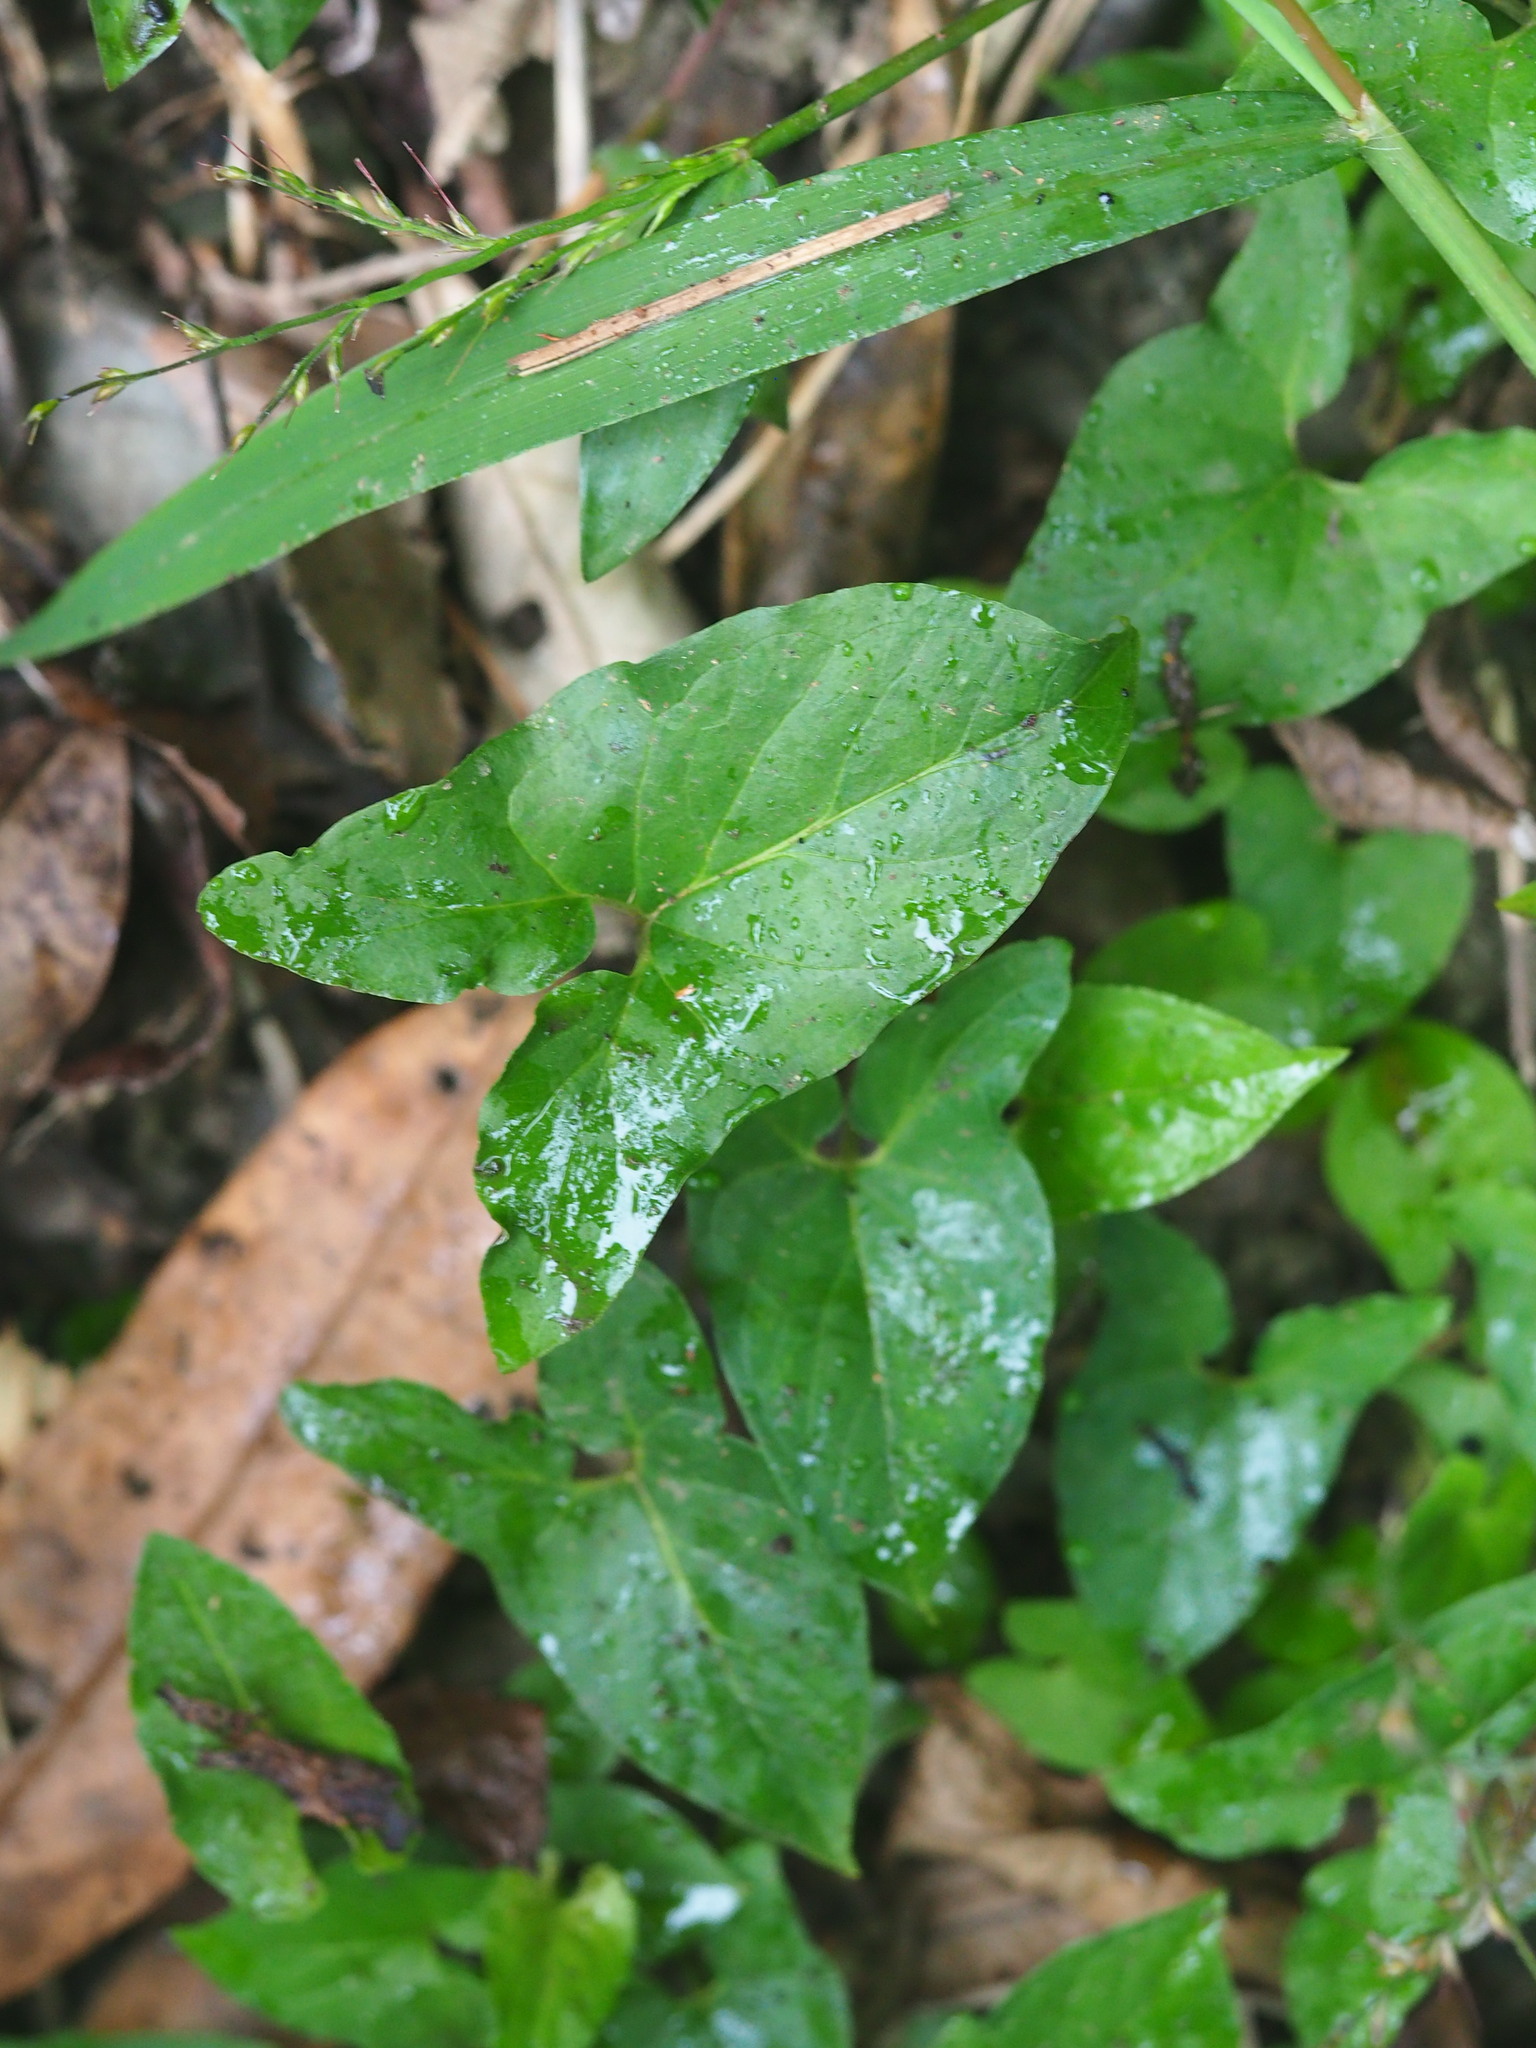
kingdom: Plantae
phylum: Tracheophyta
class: Liliopsida
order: Alismatales
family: Araceae
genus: Typhonium
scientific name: Typhonium blumei
